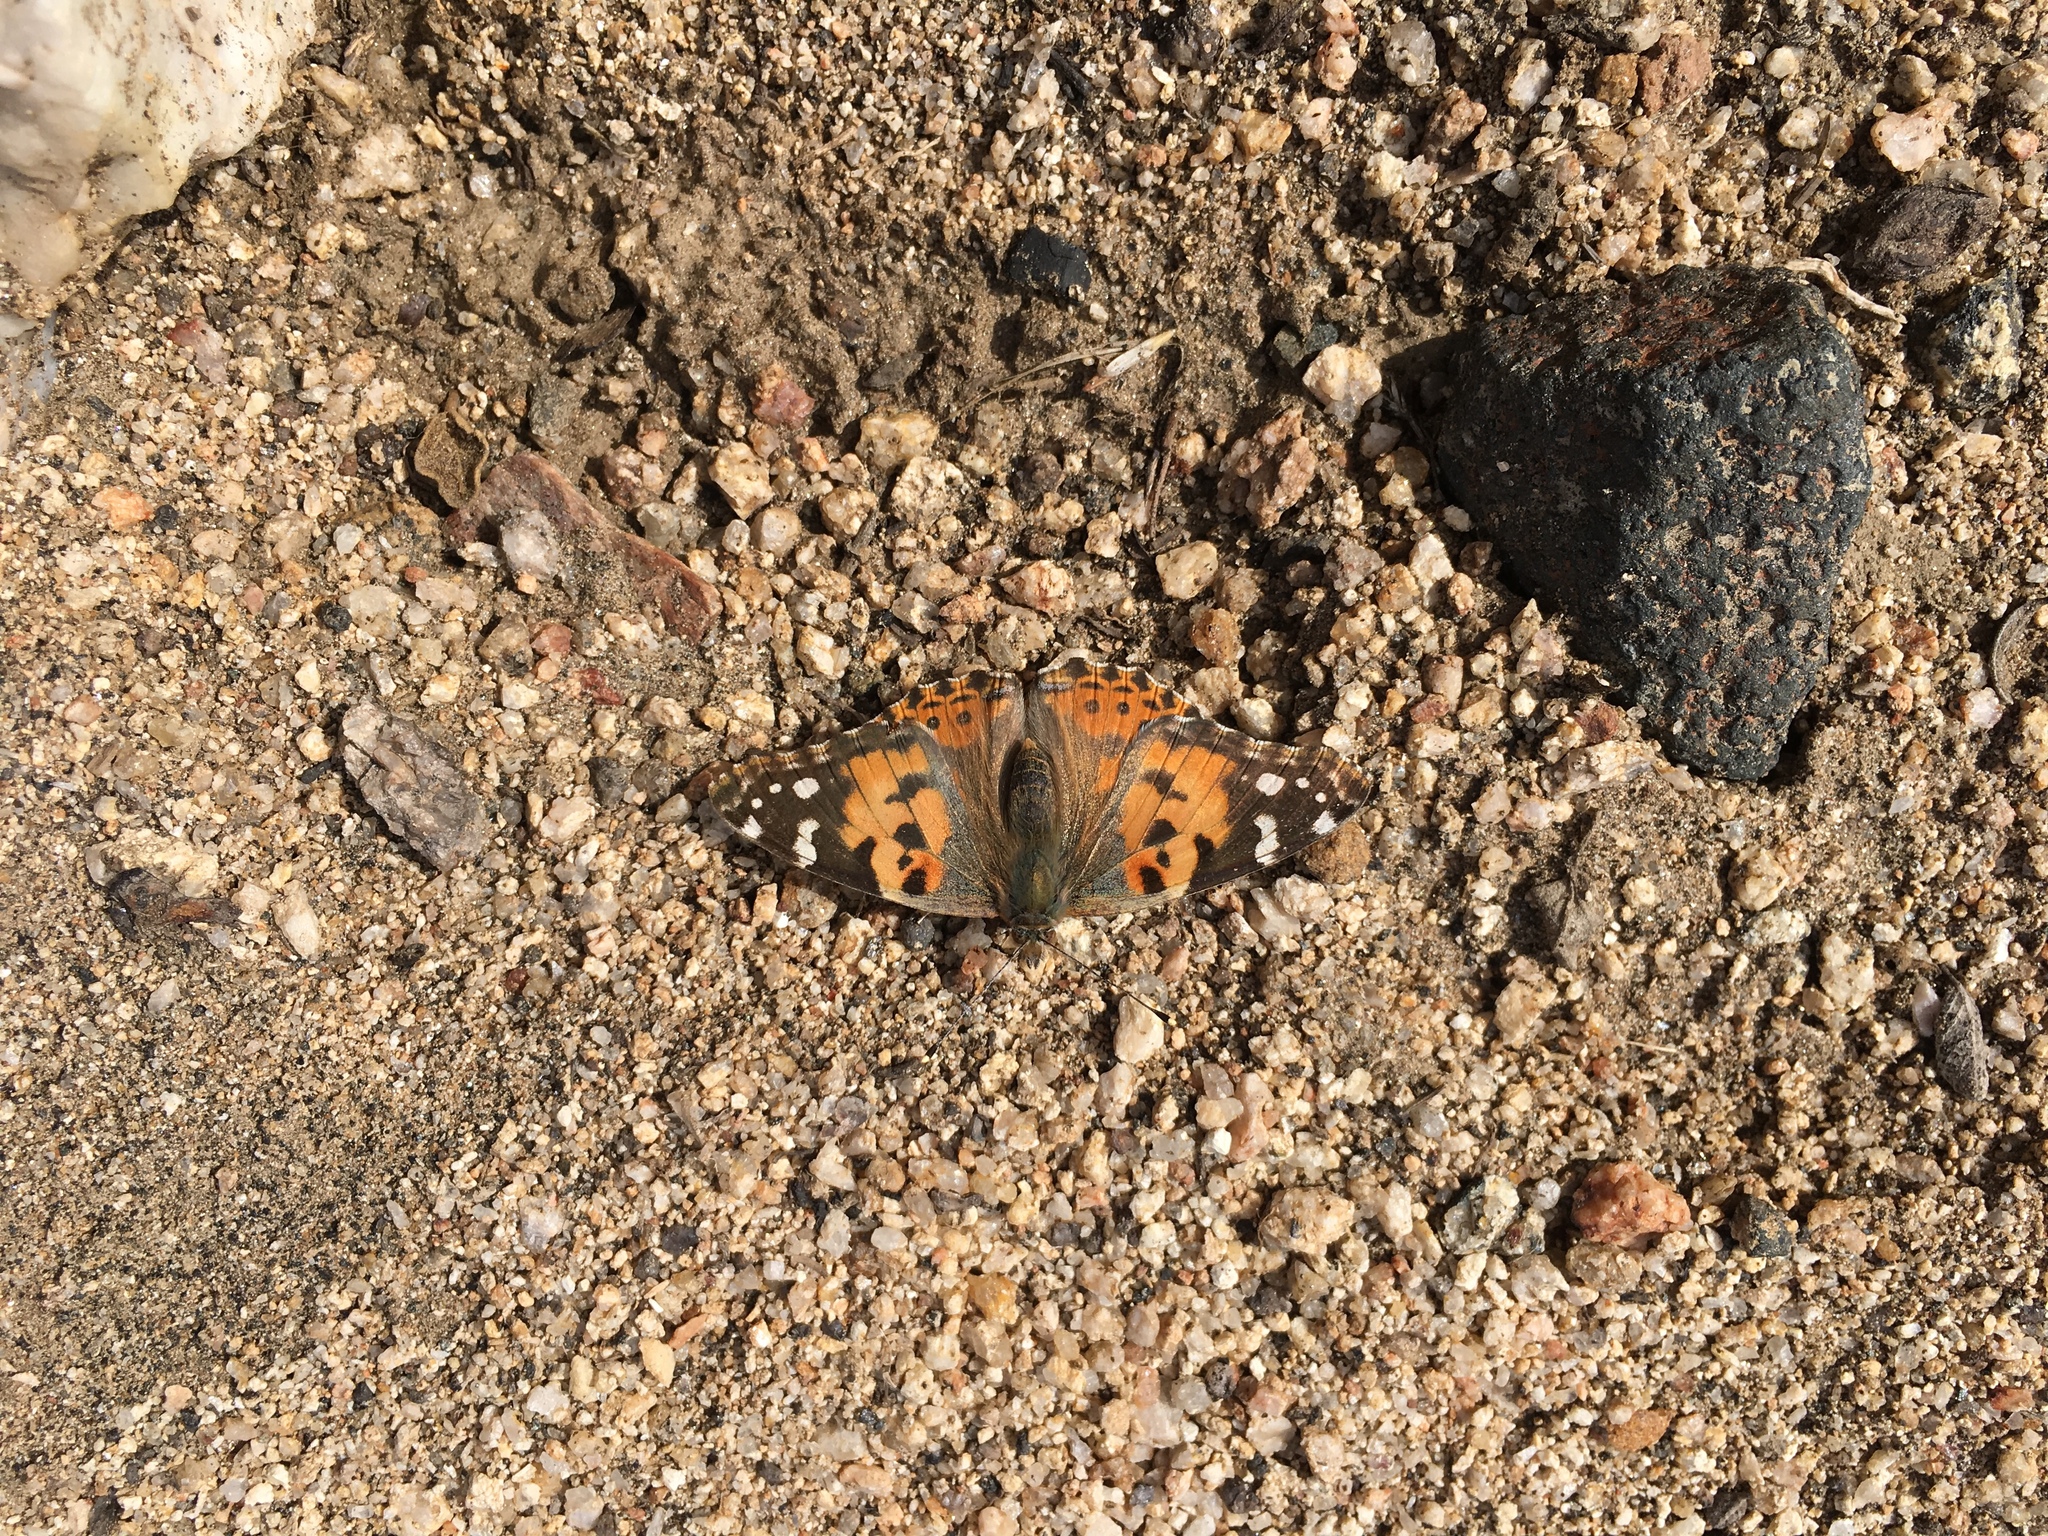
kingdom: Animalia
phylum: Arthropoda
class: Insecta
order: Lepidoptera
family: Nymphalidae
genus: Vanessa
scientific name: Vanessa cardui
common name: Painted lady
